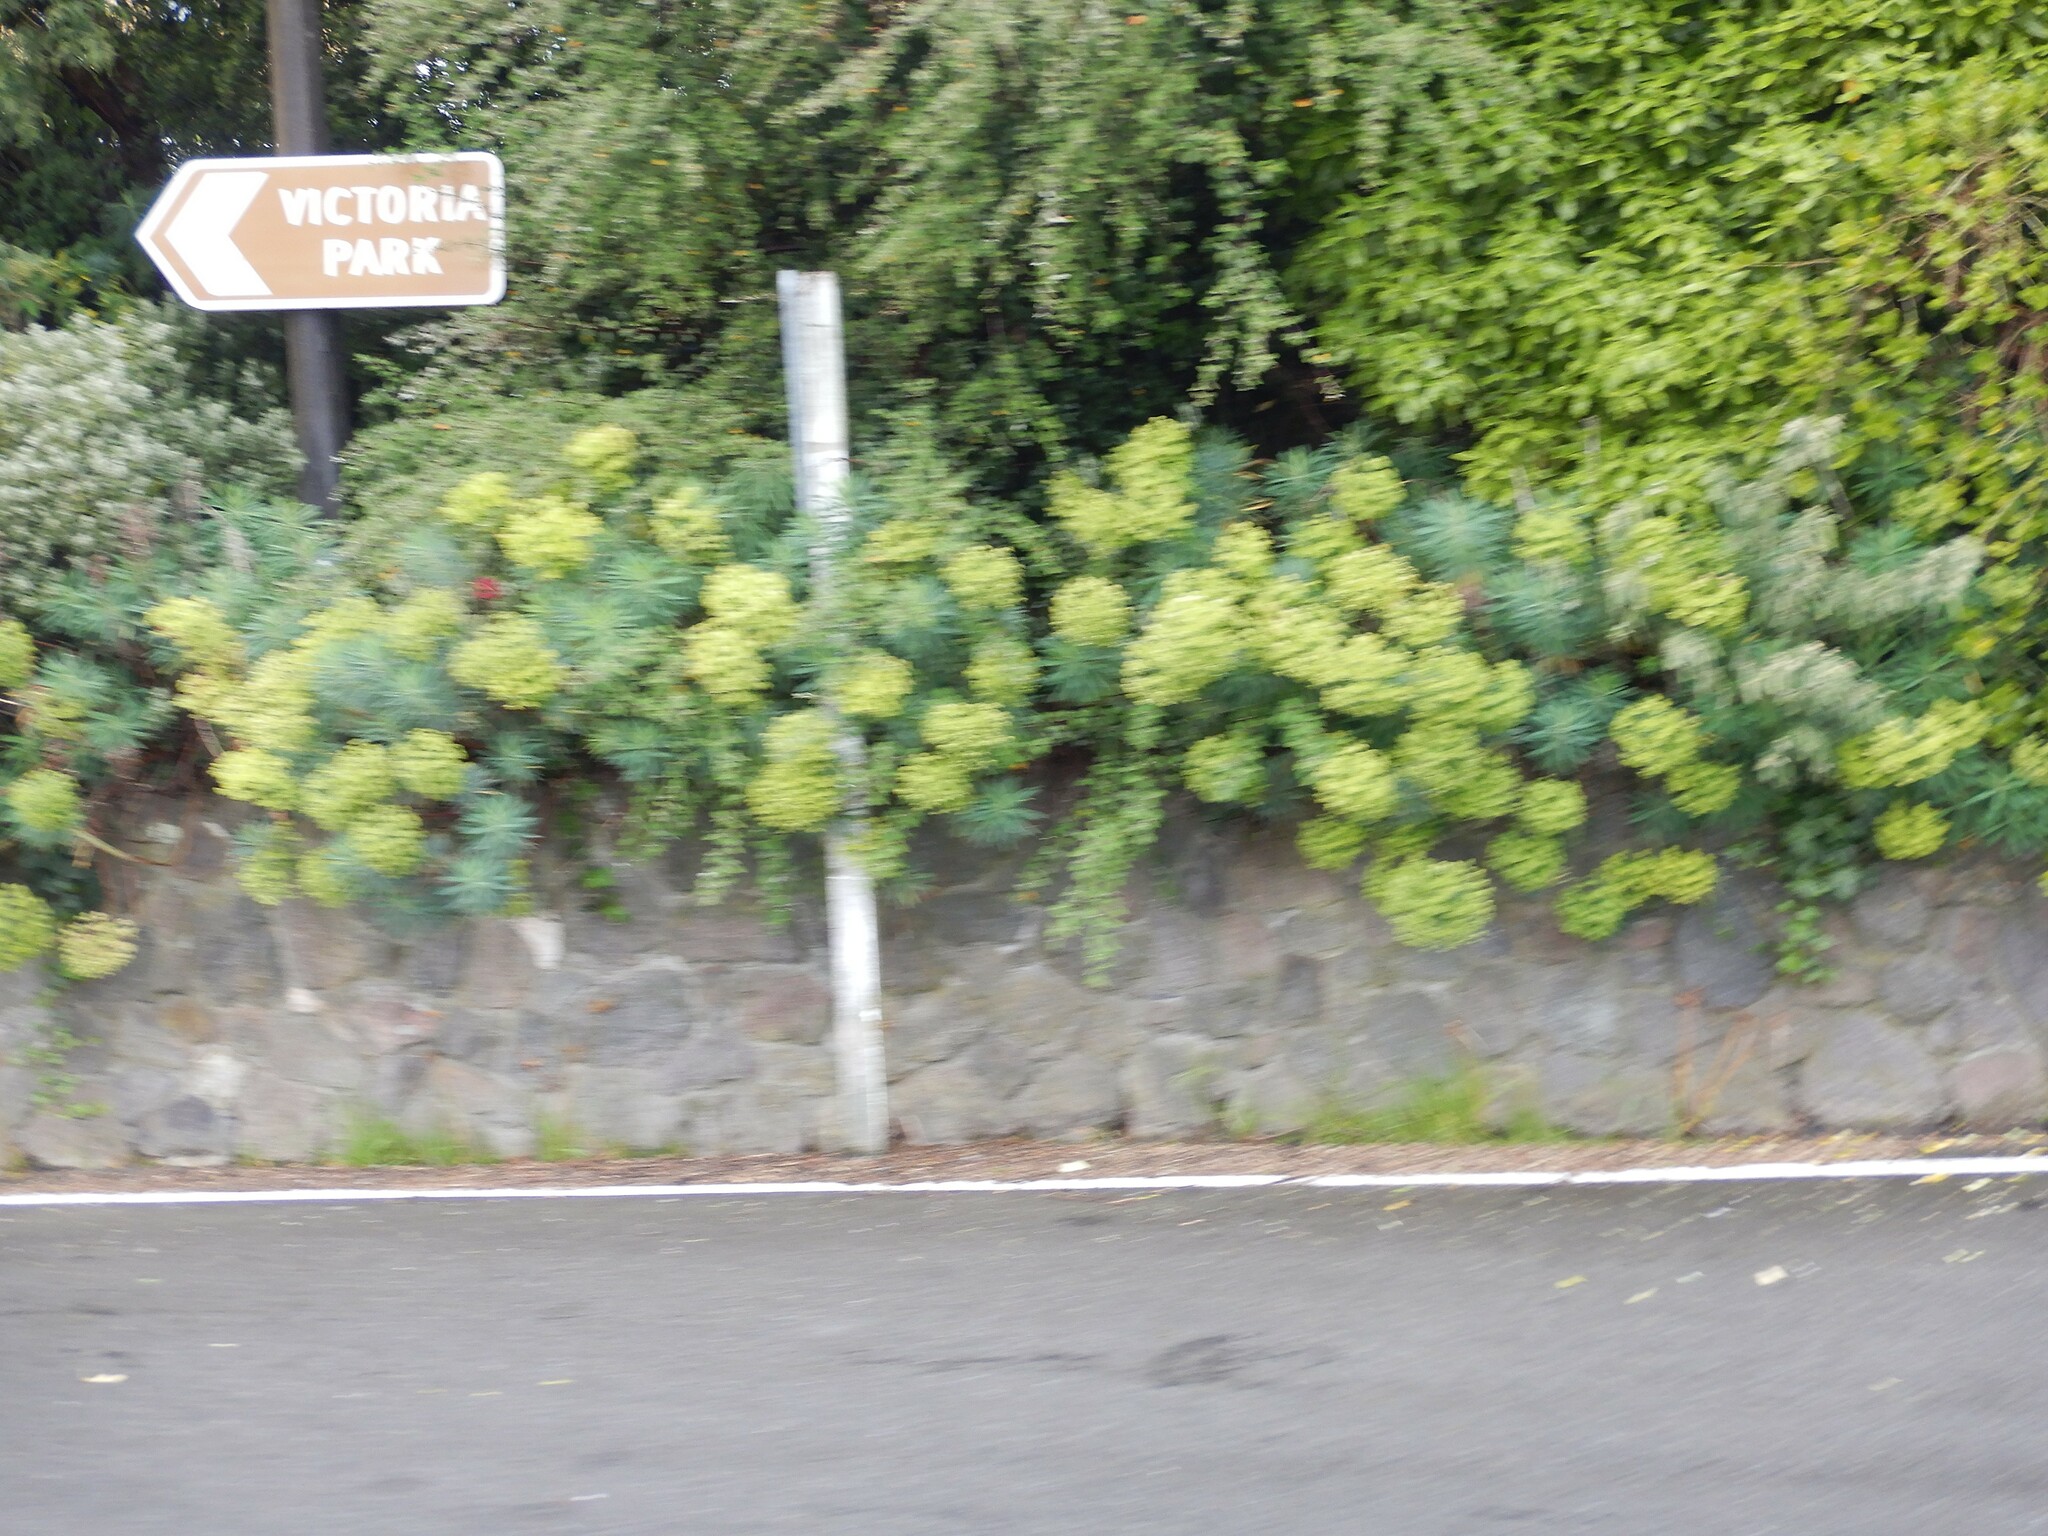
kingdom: Plantae
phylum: Tracheophyta
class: Magnoliopsida
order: Malpighiales
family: Euphorbiaceae
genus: Euphorbia
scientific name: Euphorbia characias
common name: Mediterranean spurge
